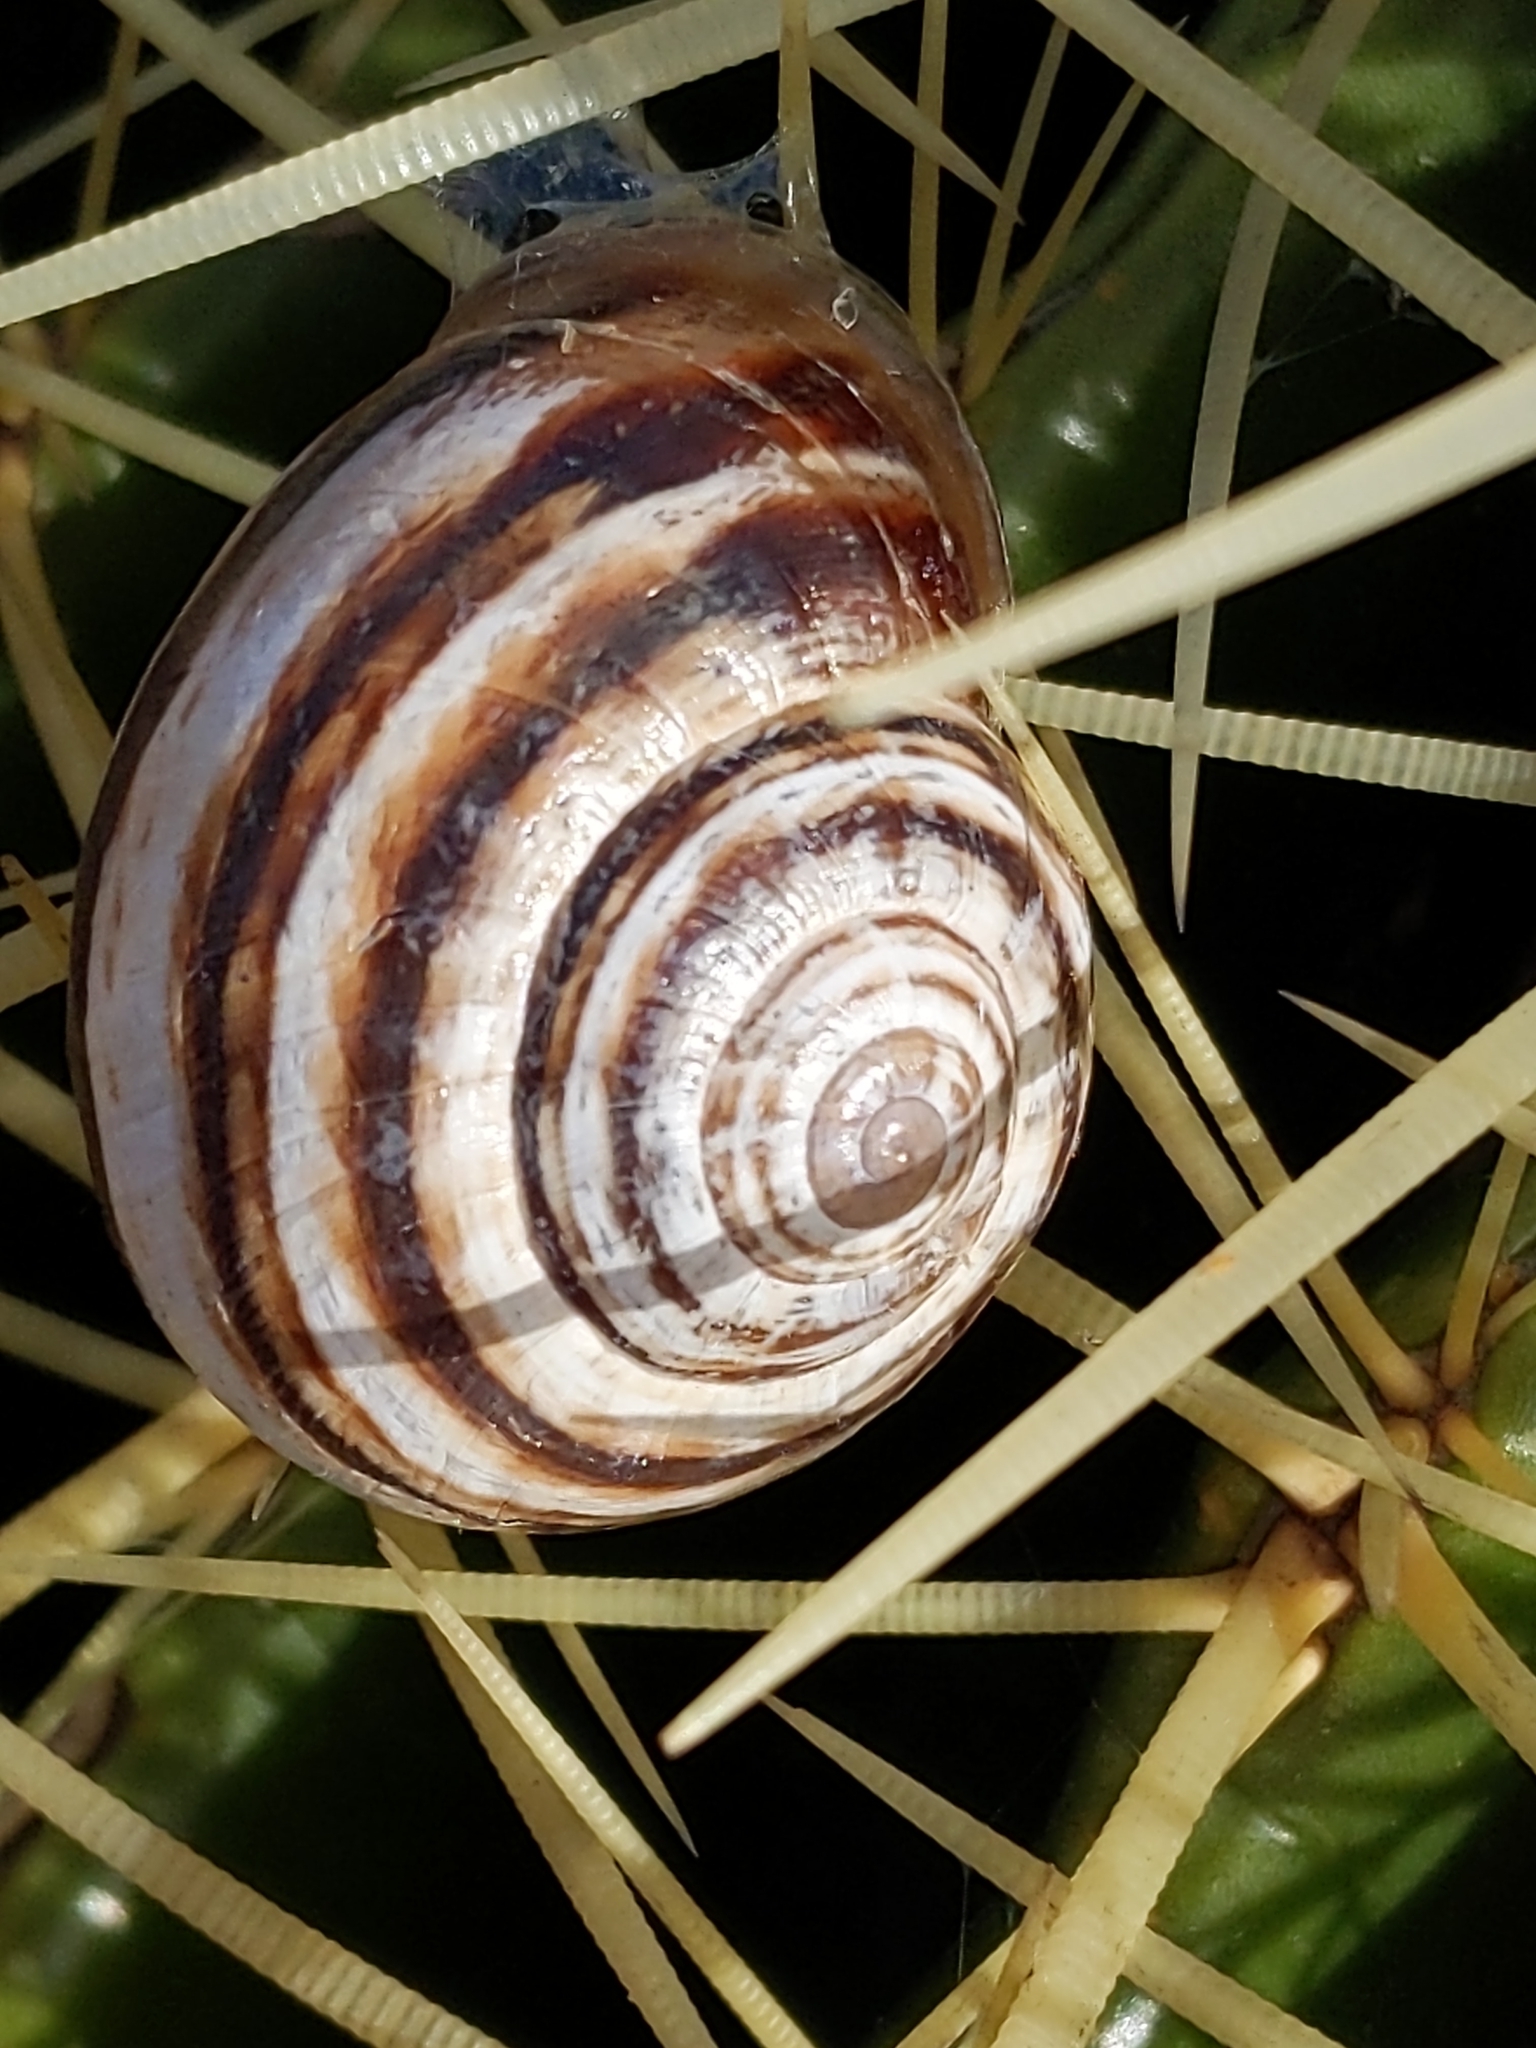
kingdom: Animalia
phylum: Mollusca
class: Gastropoda
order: Stylommatophora
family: Helicidae
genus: Otala
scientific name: Otala lactea
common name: Milk snail
